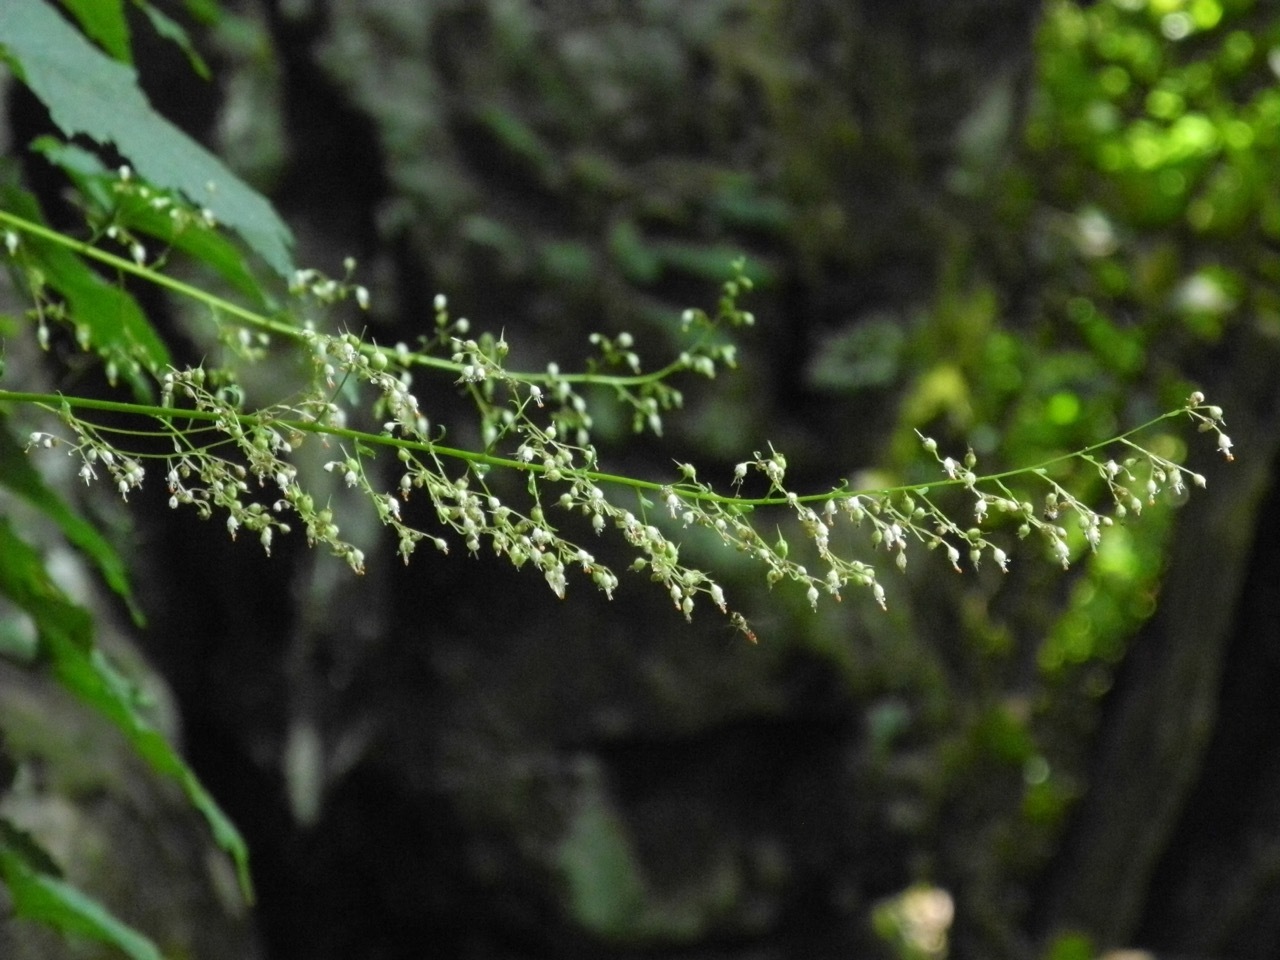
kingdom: Plantae
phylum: Tracheophyta
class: Magnoliopsida
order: Saxifragales
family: Saxifragaceae
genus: Heuchera
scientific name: Heuchera villosa
